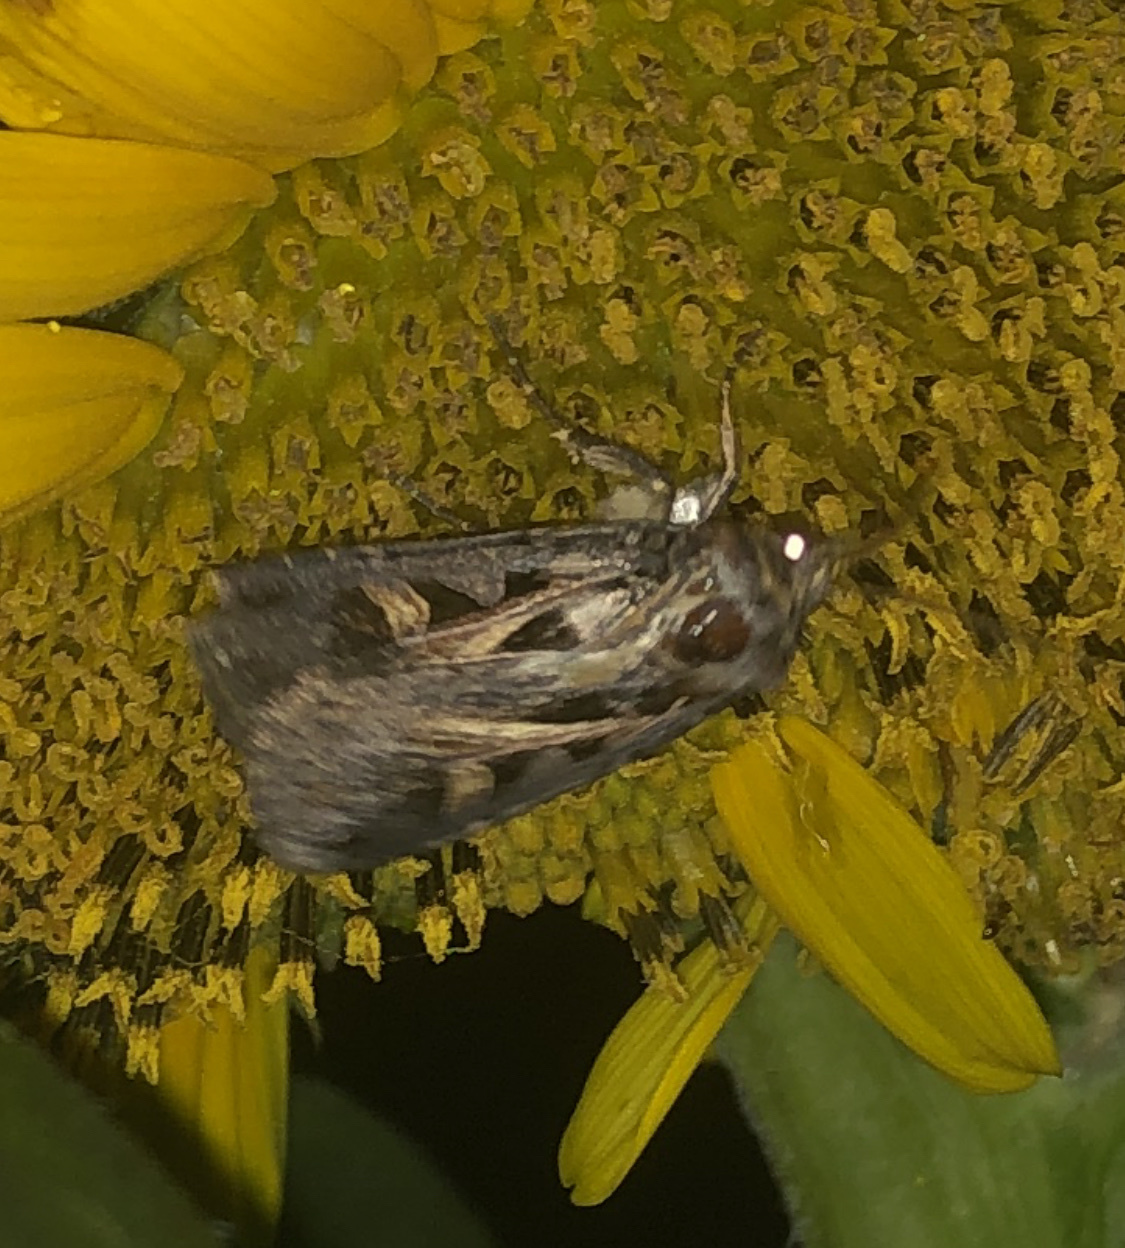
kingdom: Animalia
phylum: Arthropoda
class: Insecta
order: Lepidoptera
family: Noctuidae
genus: Feltia
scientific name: Feltia herilis
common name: Master's dart
